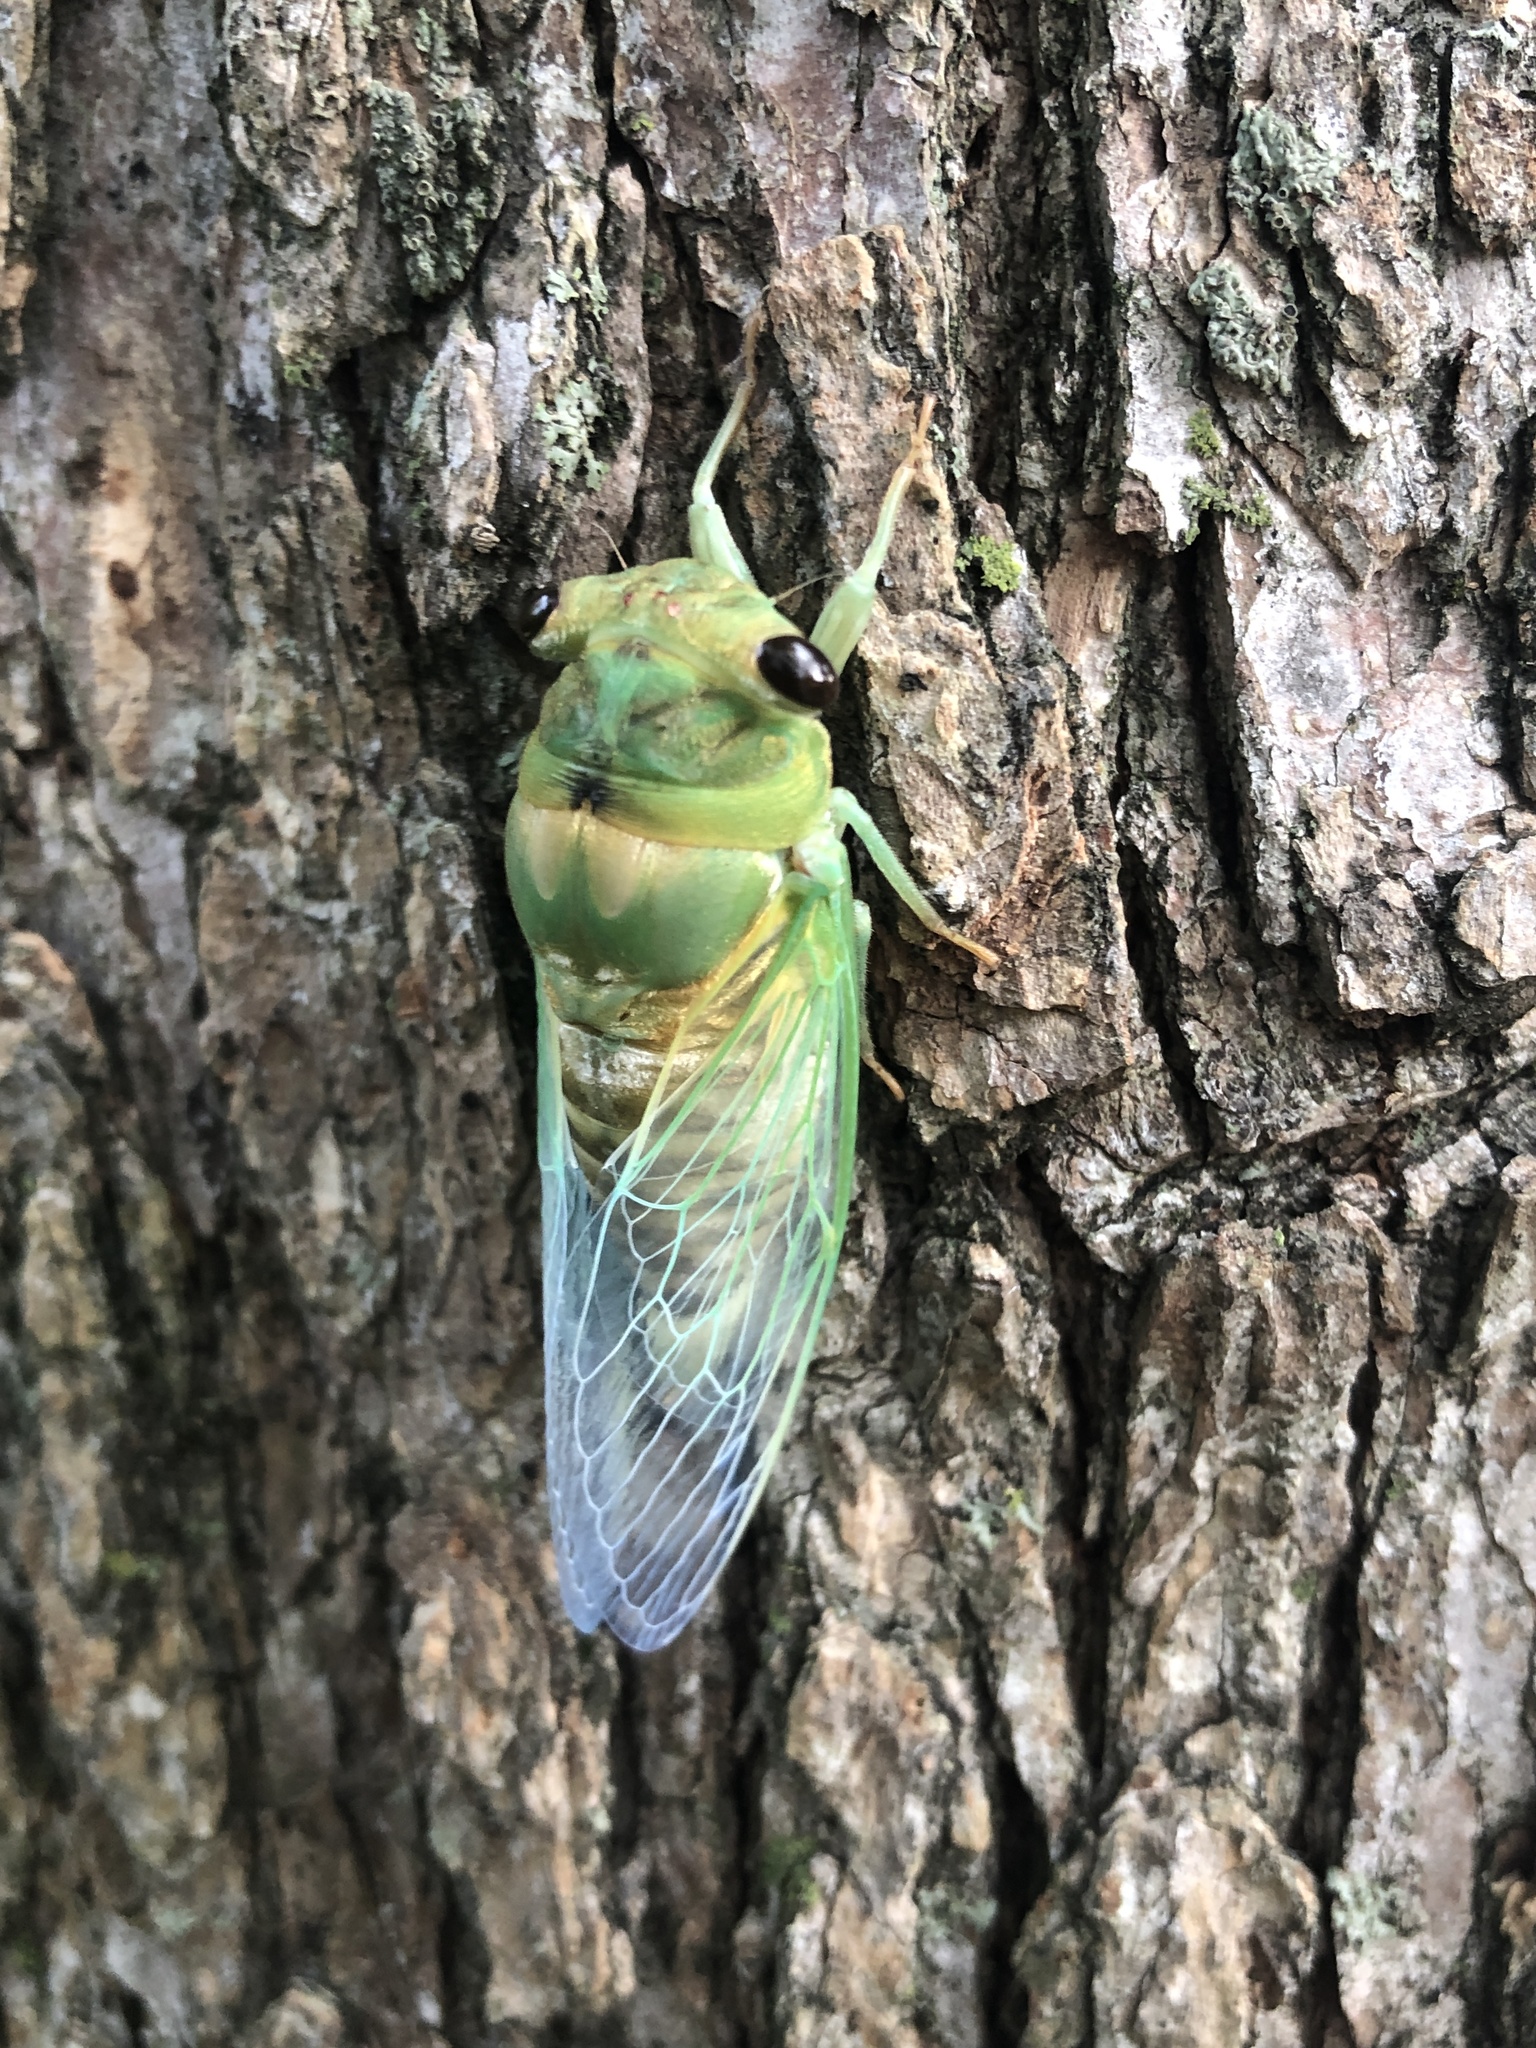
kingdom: Animalia
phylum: Arthropoda
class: Insecta
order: Hemiptera
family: Cicadidae
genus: Neotibicen
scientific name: Neotibicen superbus
